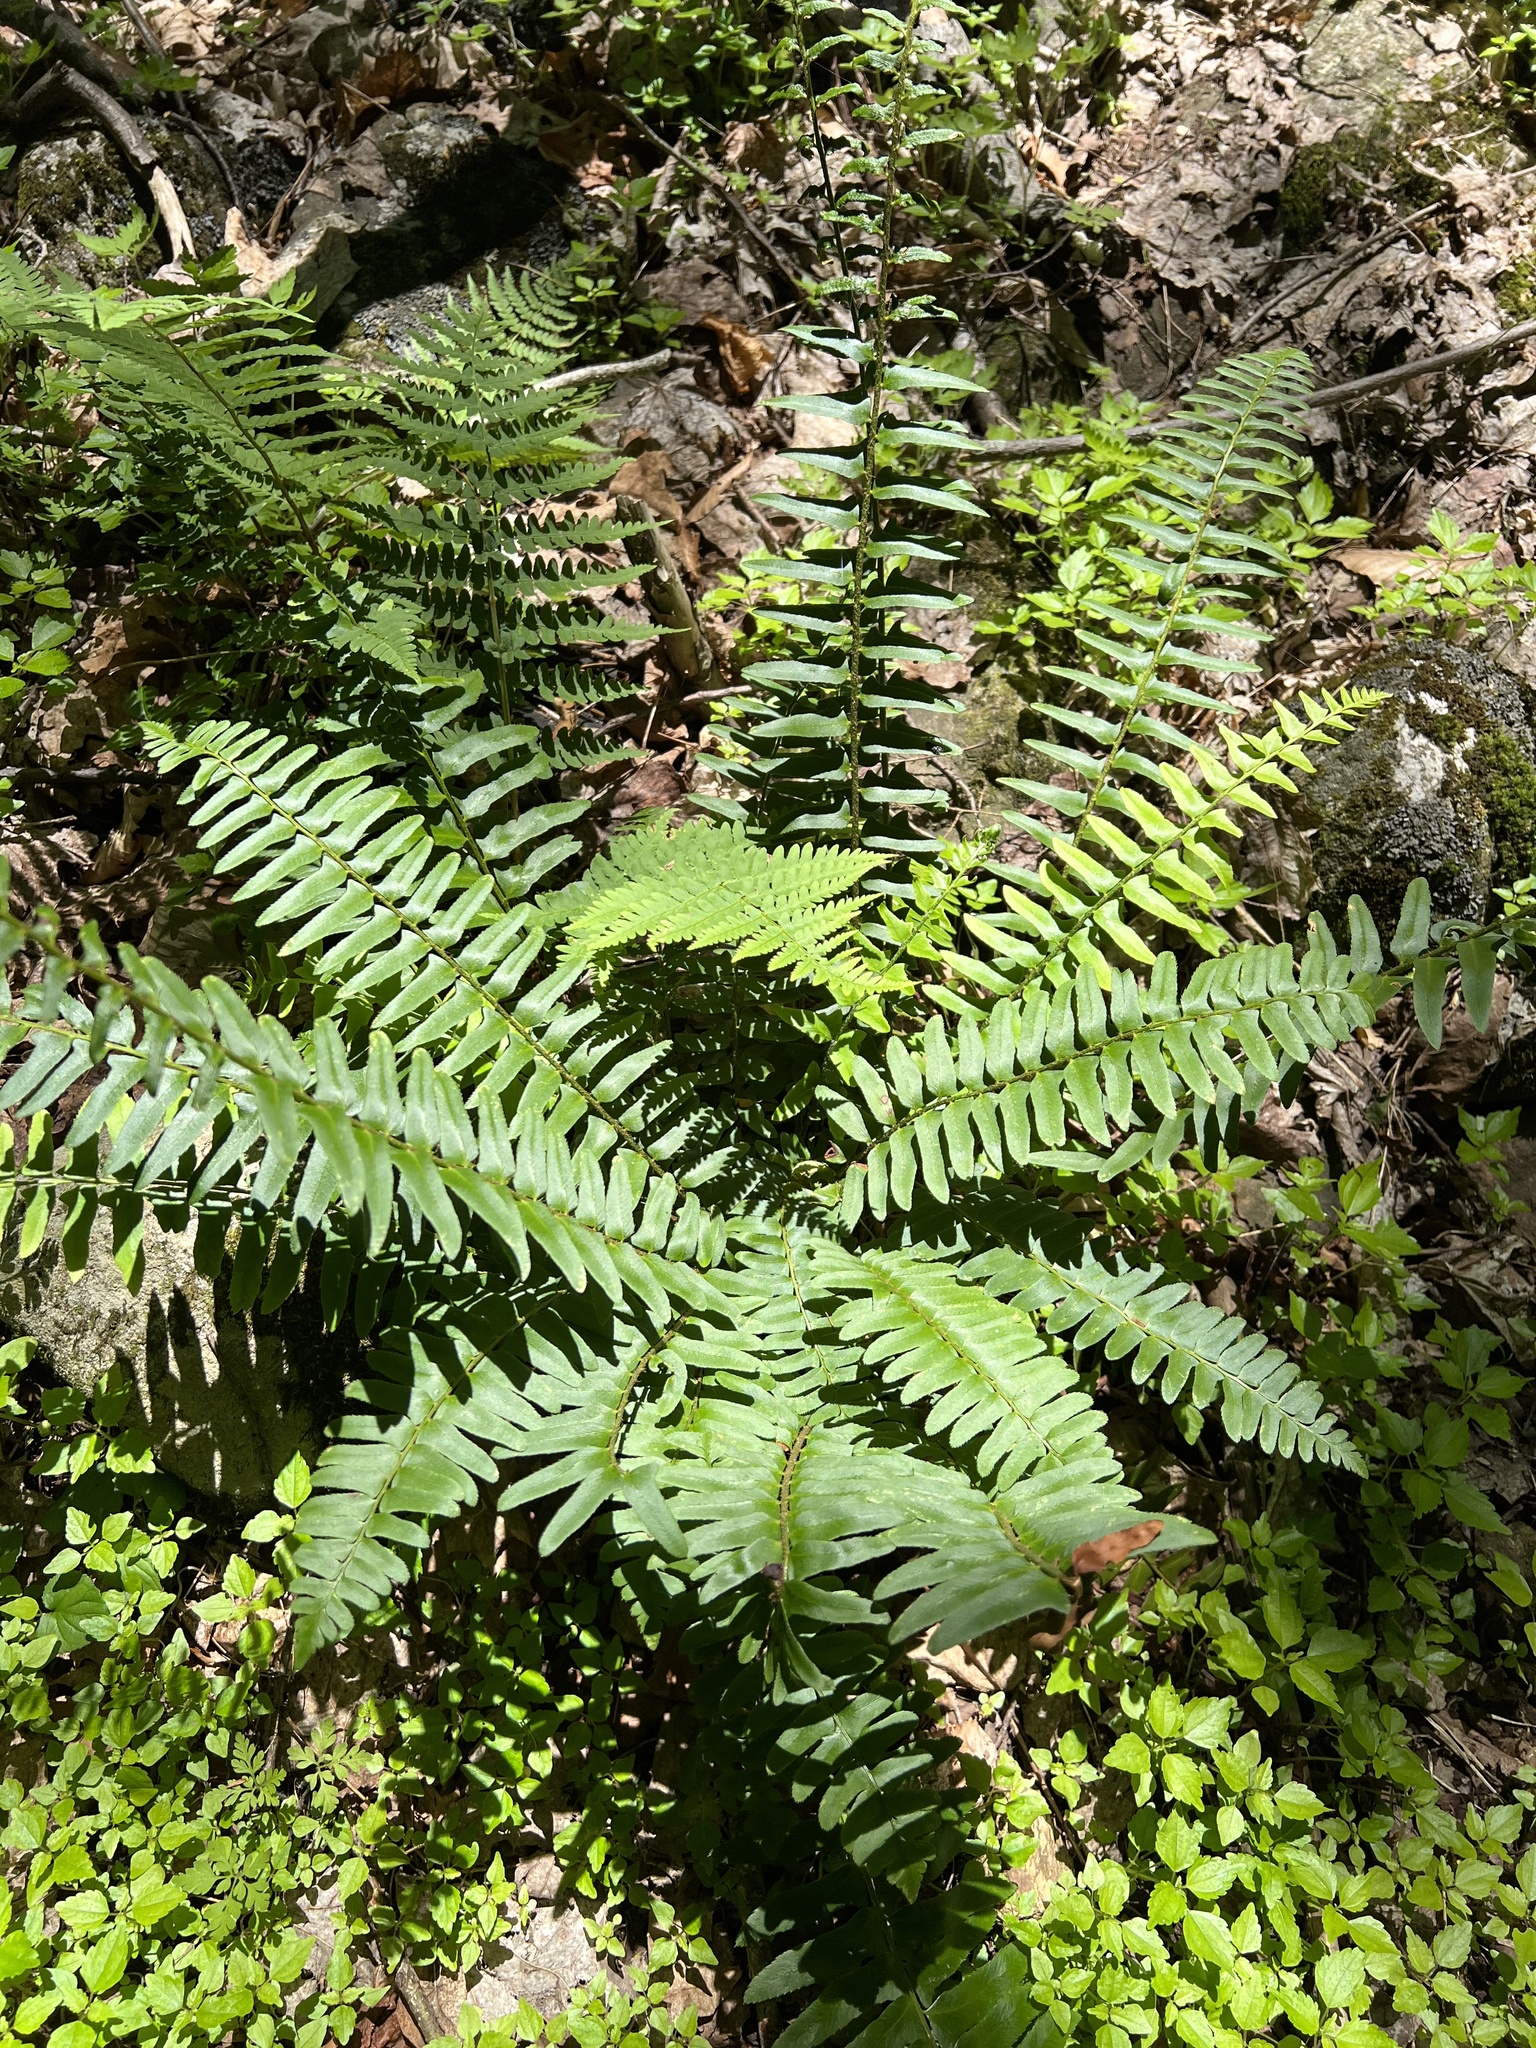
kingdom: Plantae
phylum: Tracheophyta
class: Polypodiopsida
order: Polypodiales
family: Dryopteridaceae
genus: Polystichum
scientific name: Polystichum acrostichoides
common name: Christmas fern
